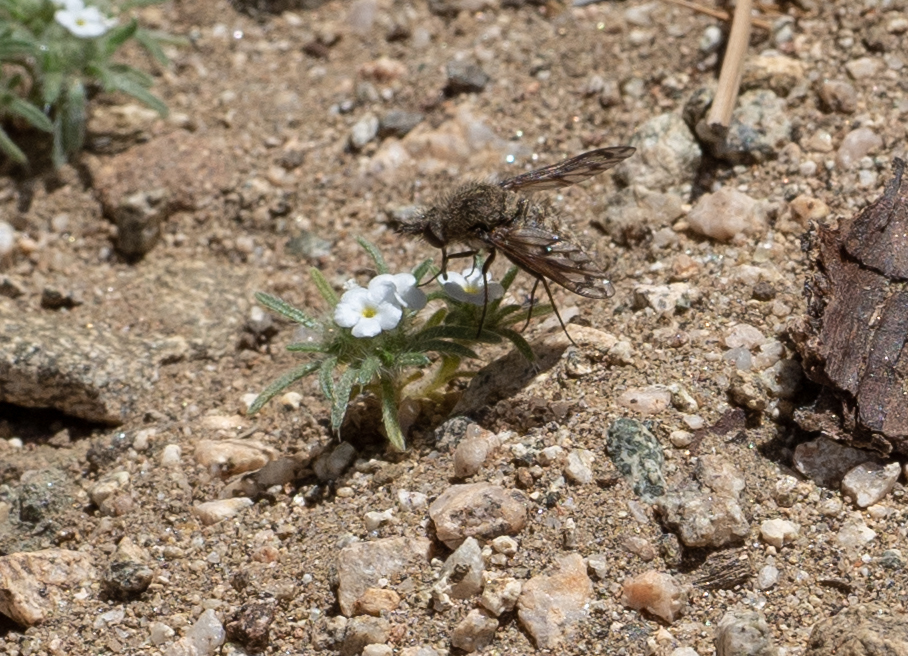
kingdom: Animalia
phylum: Arthropoda
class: Insecta
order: Diptera
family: Bombyliidae
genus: Conophorus
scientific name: Conophorus fenestratus
